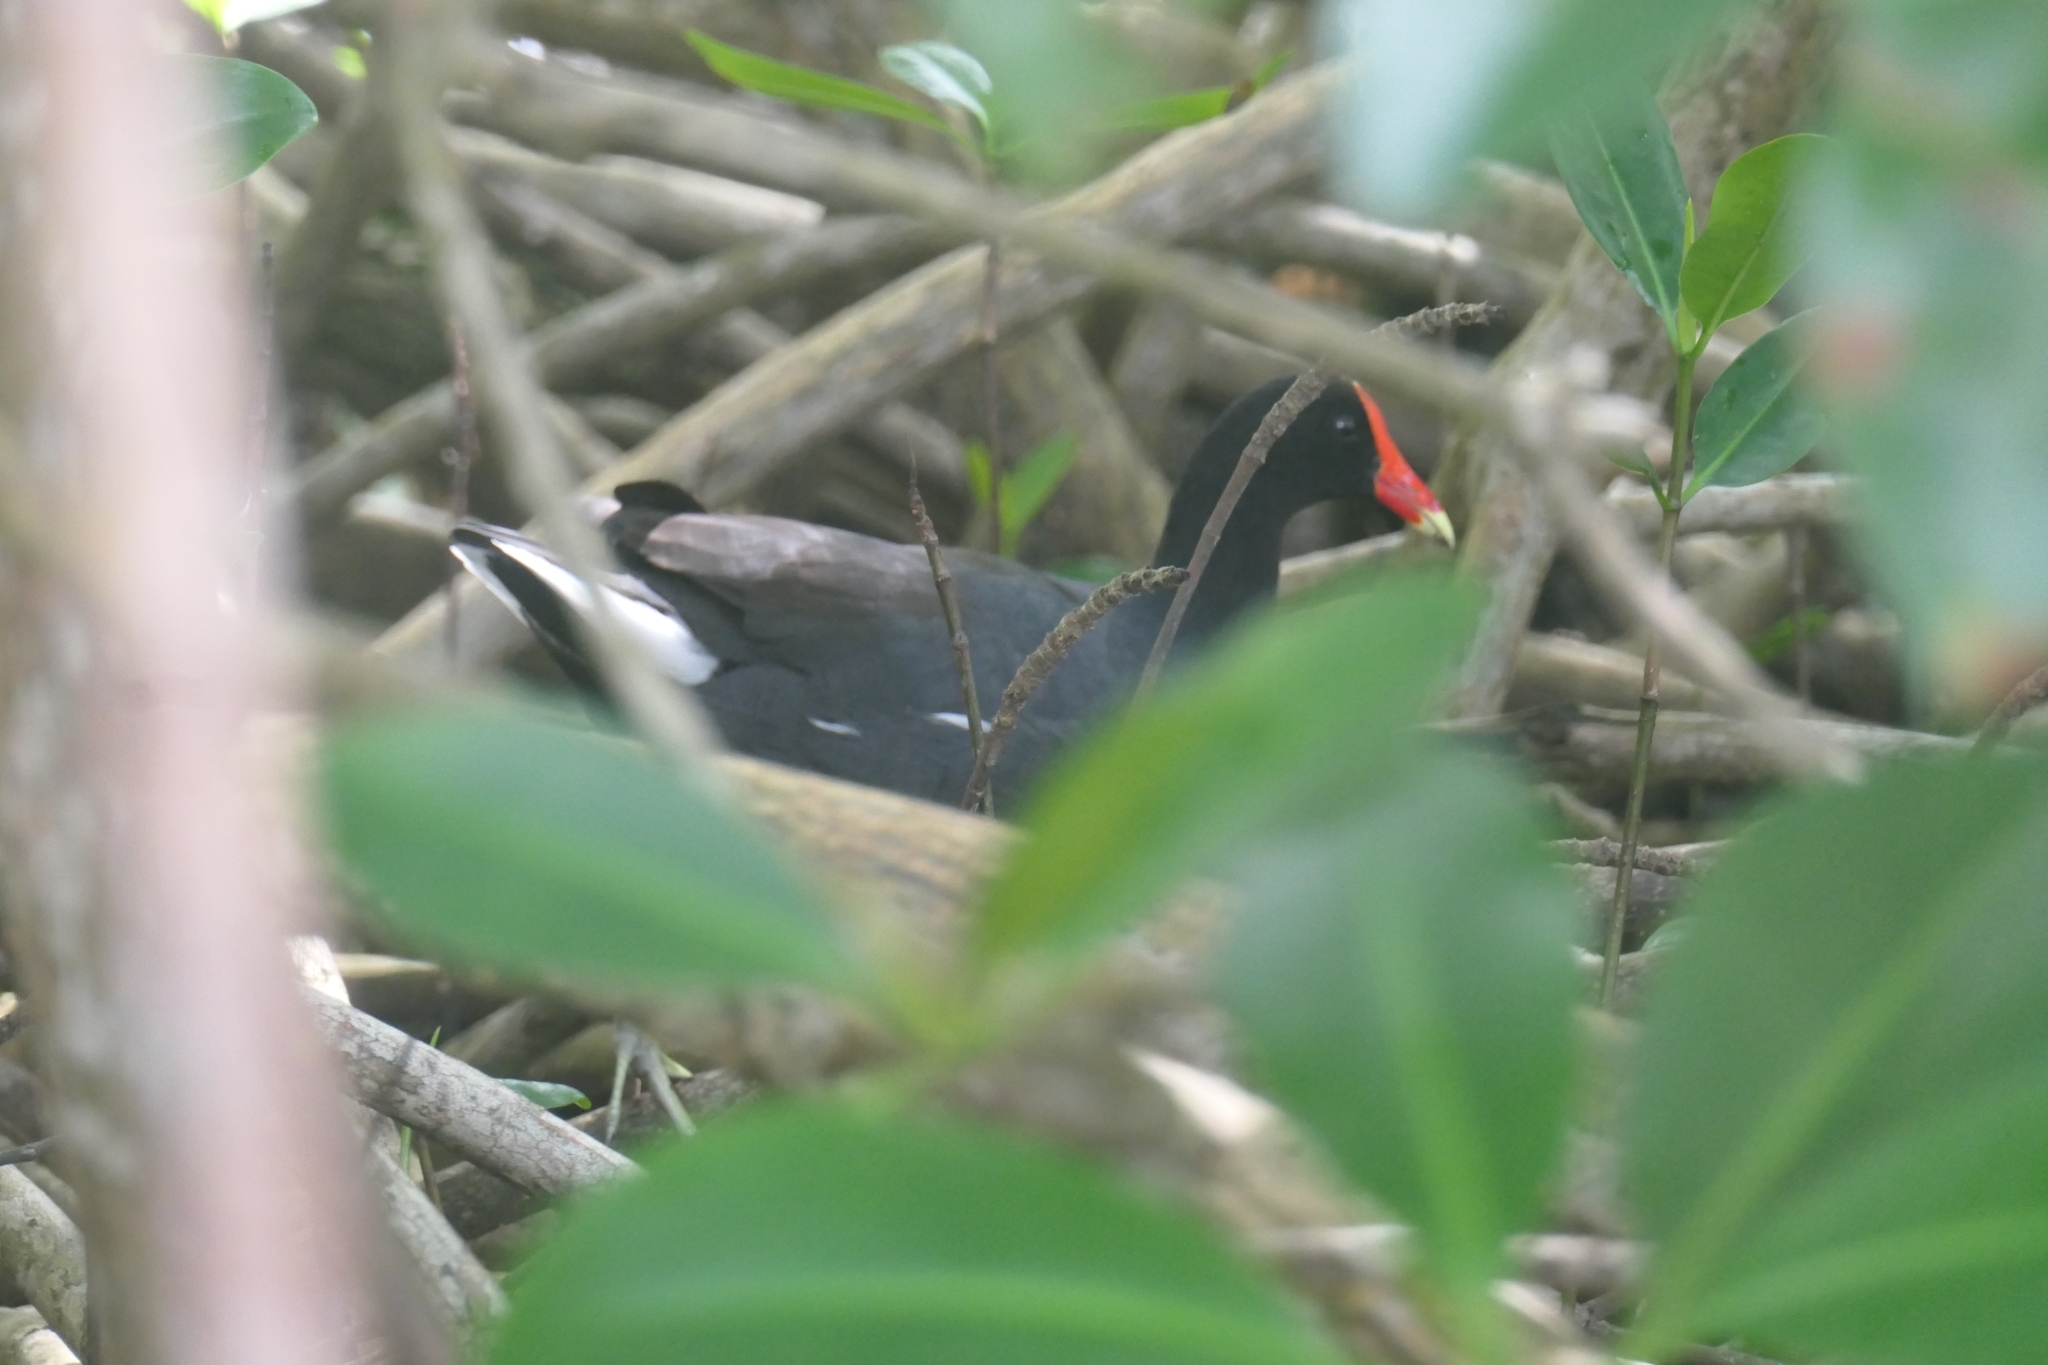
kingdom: Animalia
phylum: Chordata
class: Aves
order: Gruiformes
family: Rallidae
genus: Gallinula
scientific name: Gallinula chloropus
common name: Common moorhen
